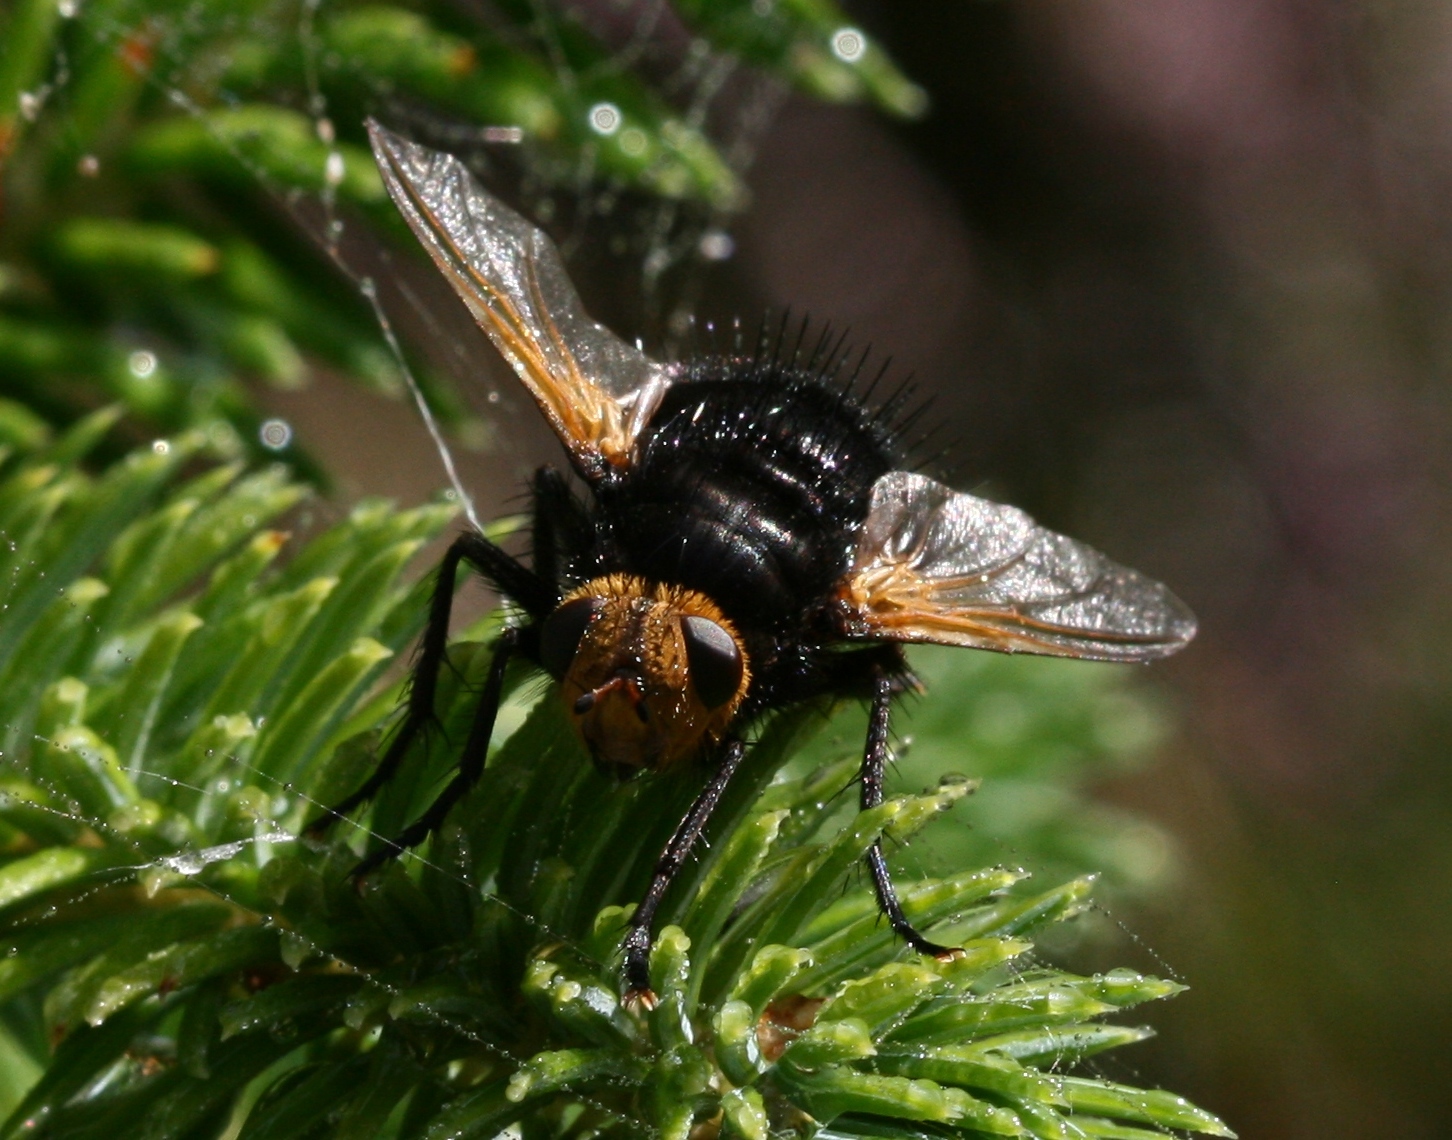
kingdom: Animalia
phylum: Arthropoda
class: Insecta
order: Diptera
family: Tachinidae
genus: Tachina
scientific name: Tachina grossa
